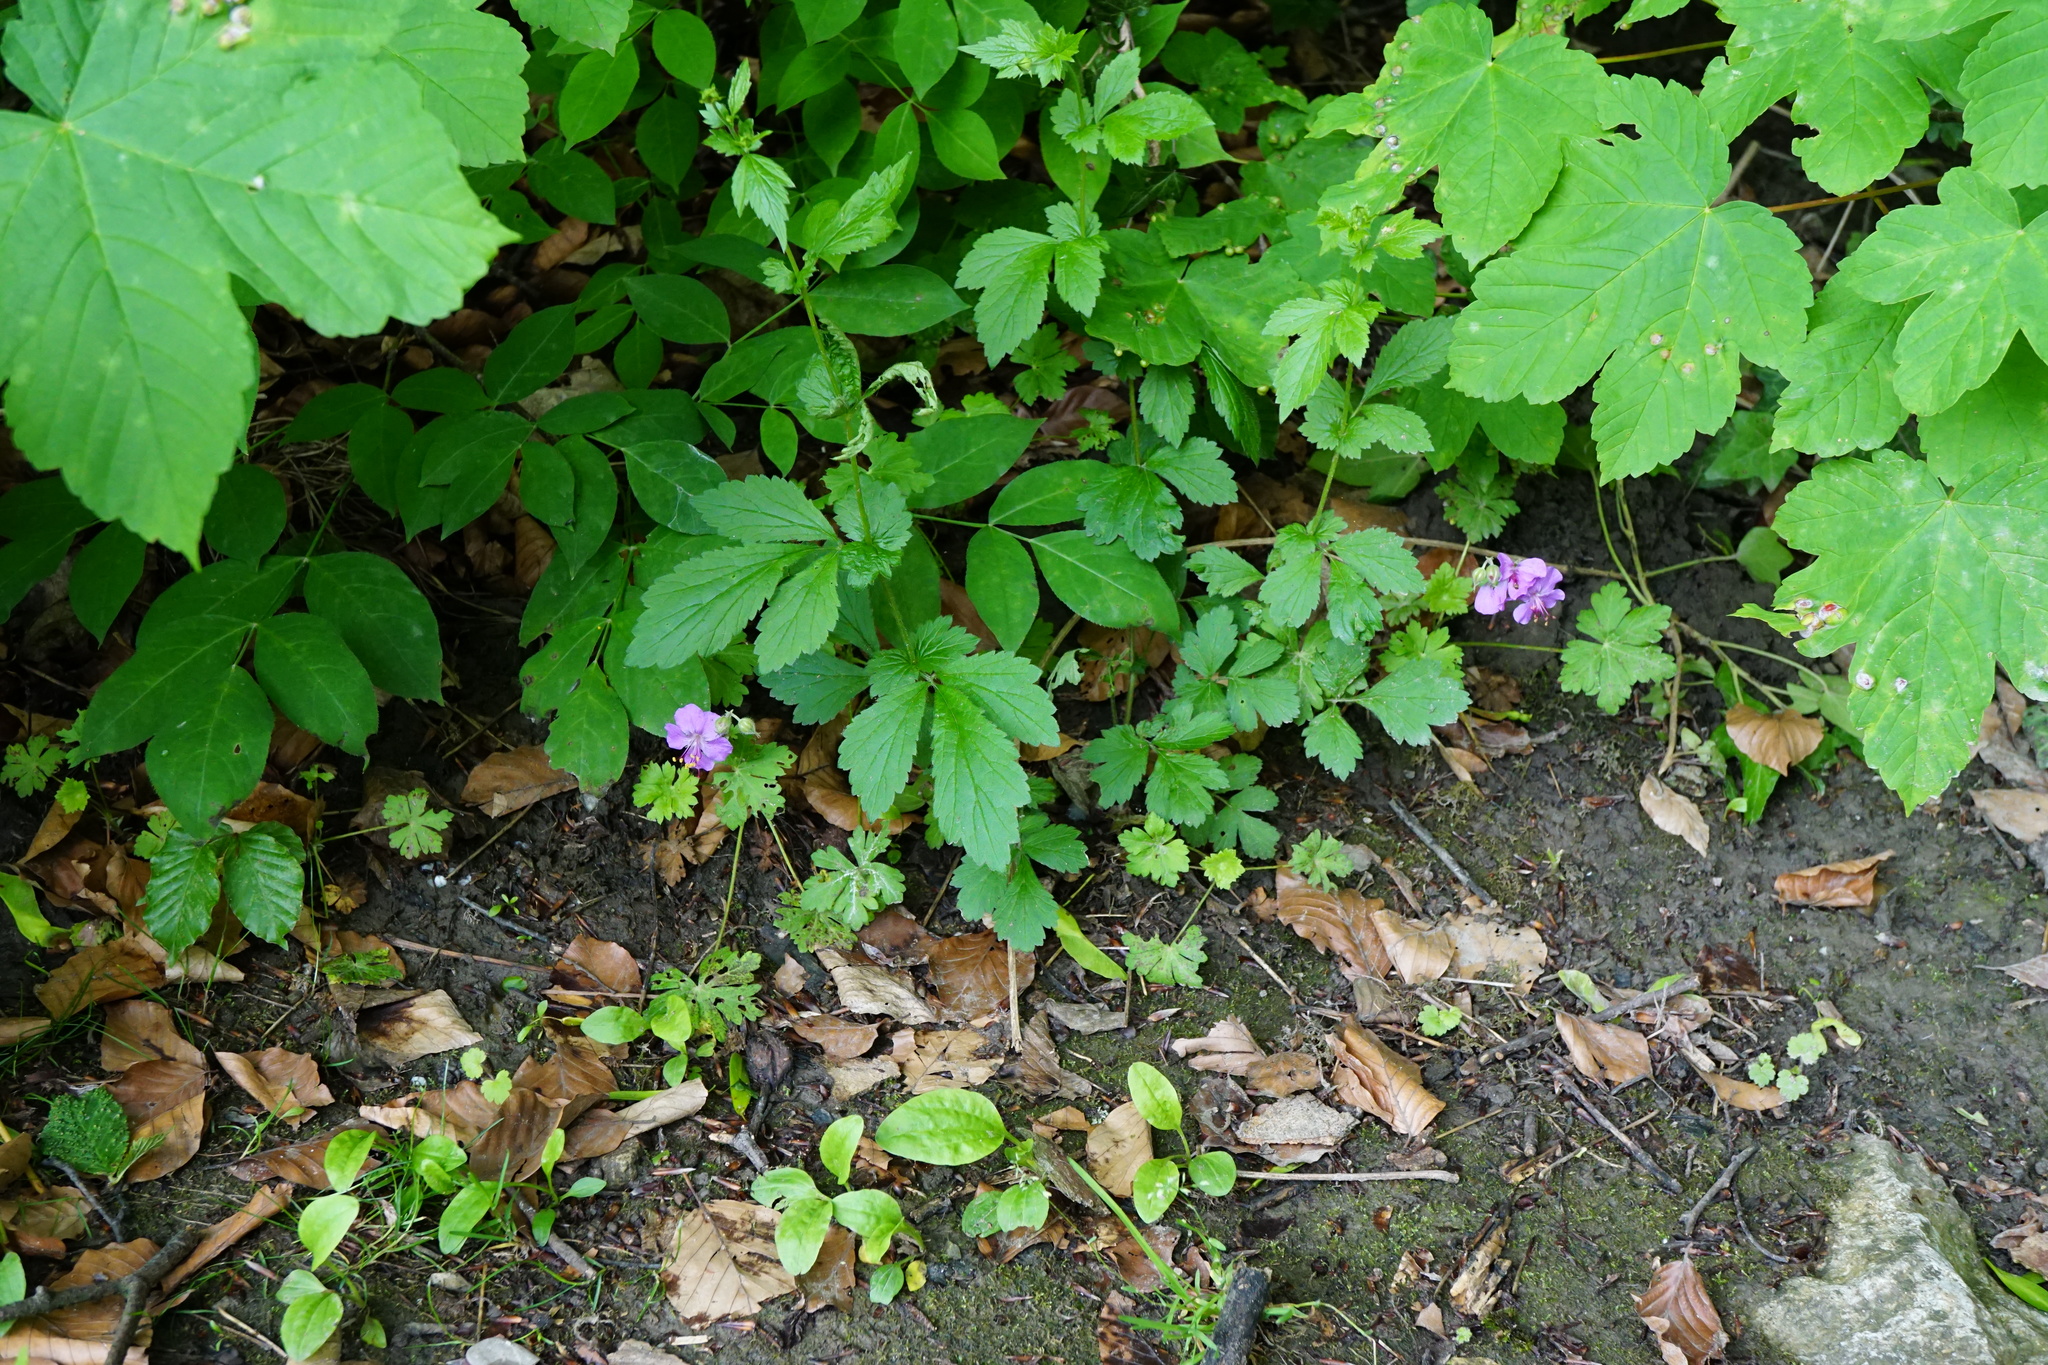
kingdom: Plantae
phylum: Tracheophyta
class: Magnoliopsida
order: Geraniales
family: Geraniaceae
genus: Geranium
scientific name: Geranium macrorrhizum
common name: Rock crane's-bill
